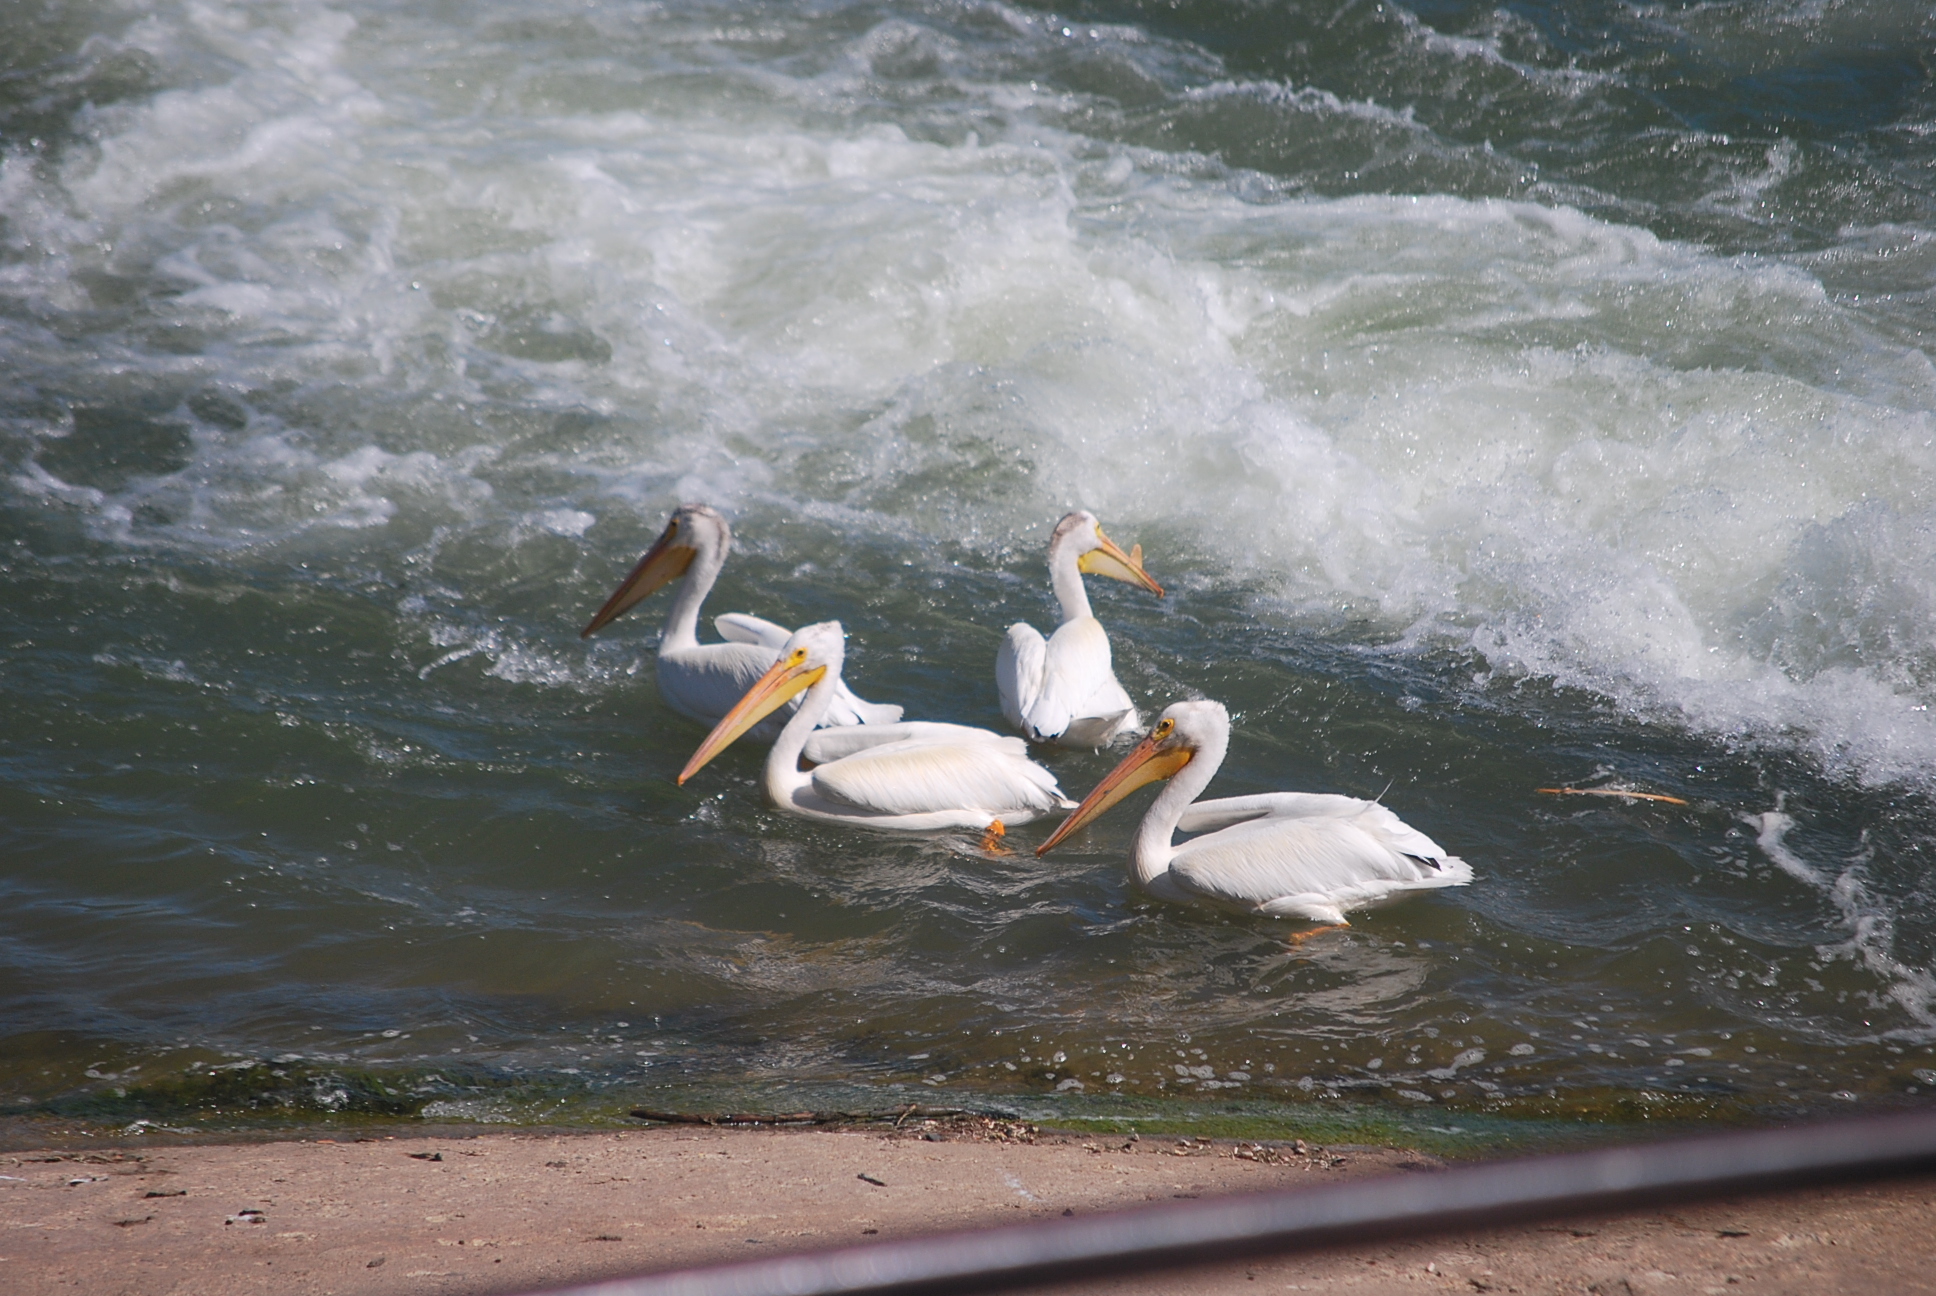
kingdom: Animalia
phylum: Chordata
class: Aves
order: Pelecaniformes
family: Pelecanidae
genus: Pelecanus
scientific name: Pelecanus erythrorhynchos
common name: American white pelican
